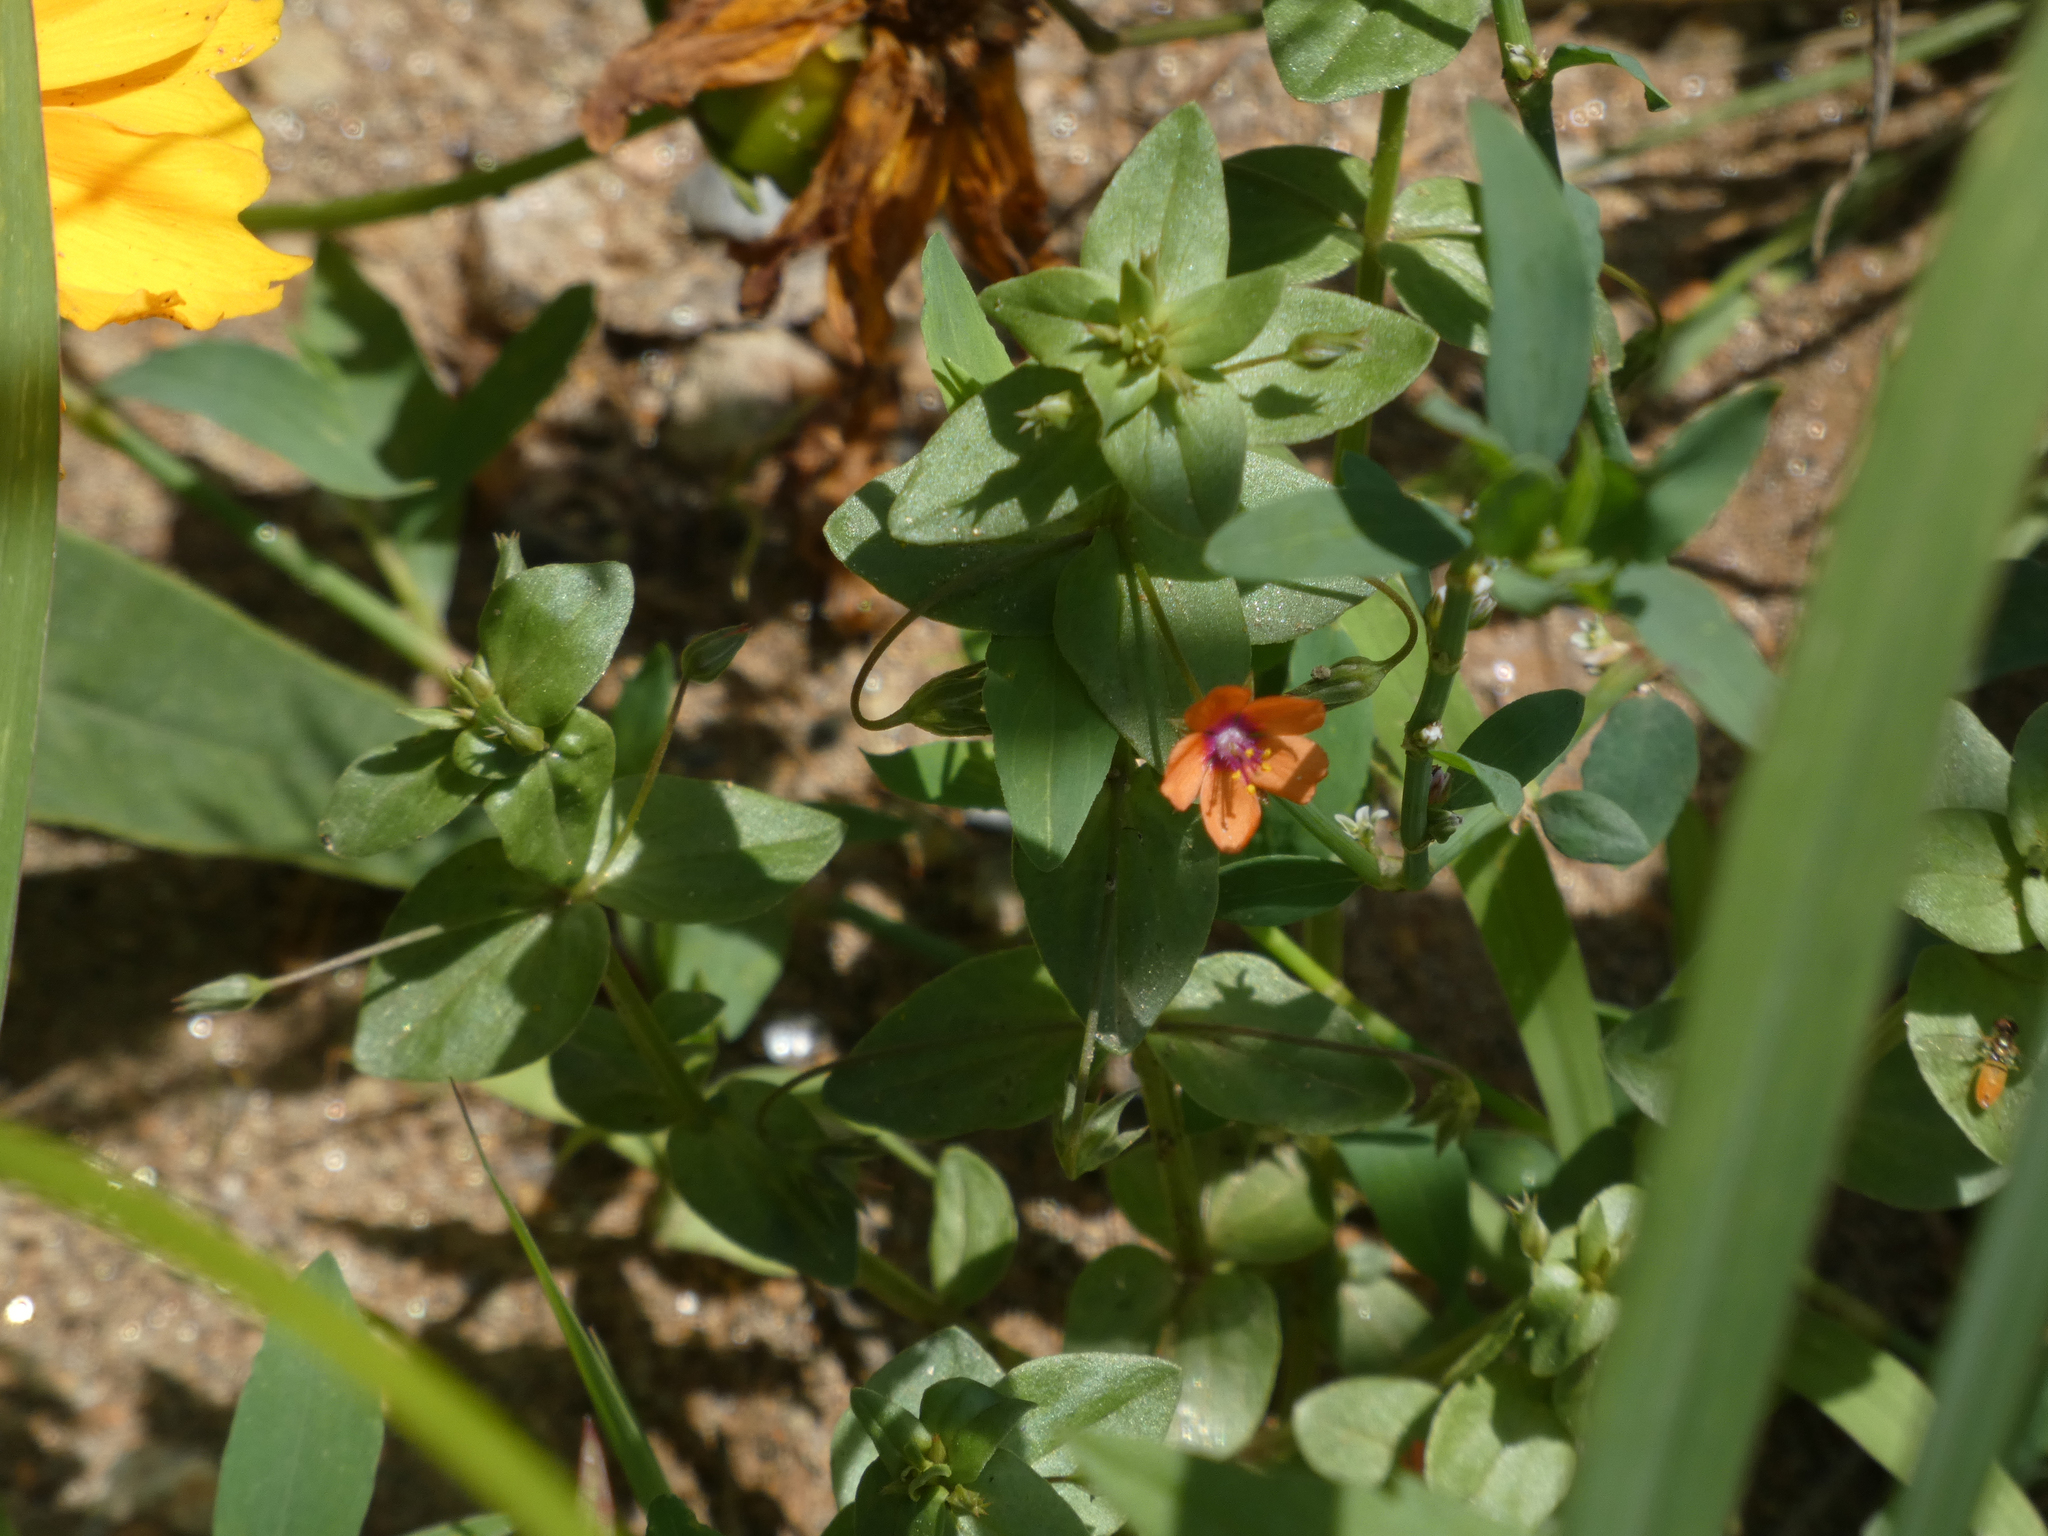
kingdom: Plantae
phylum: Tracheophyta
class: Magnoliopsida
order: Ericales
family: Primulaceae
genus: Lysimachia
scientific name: Lysimachia arvensis
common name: Scarlet pimpernel
